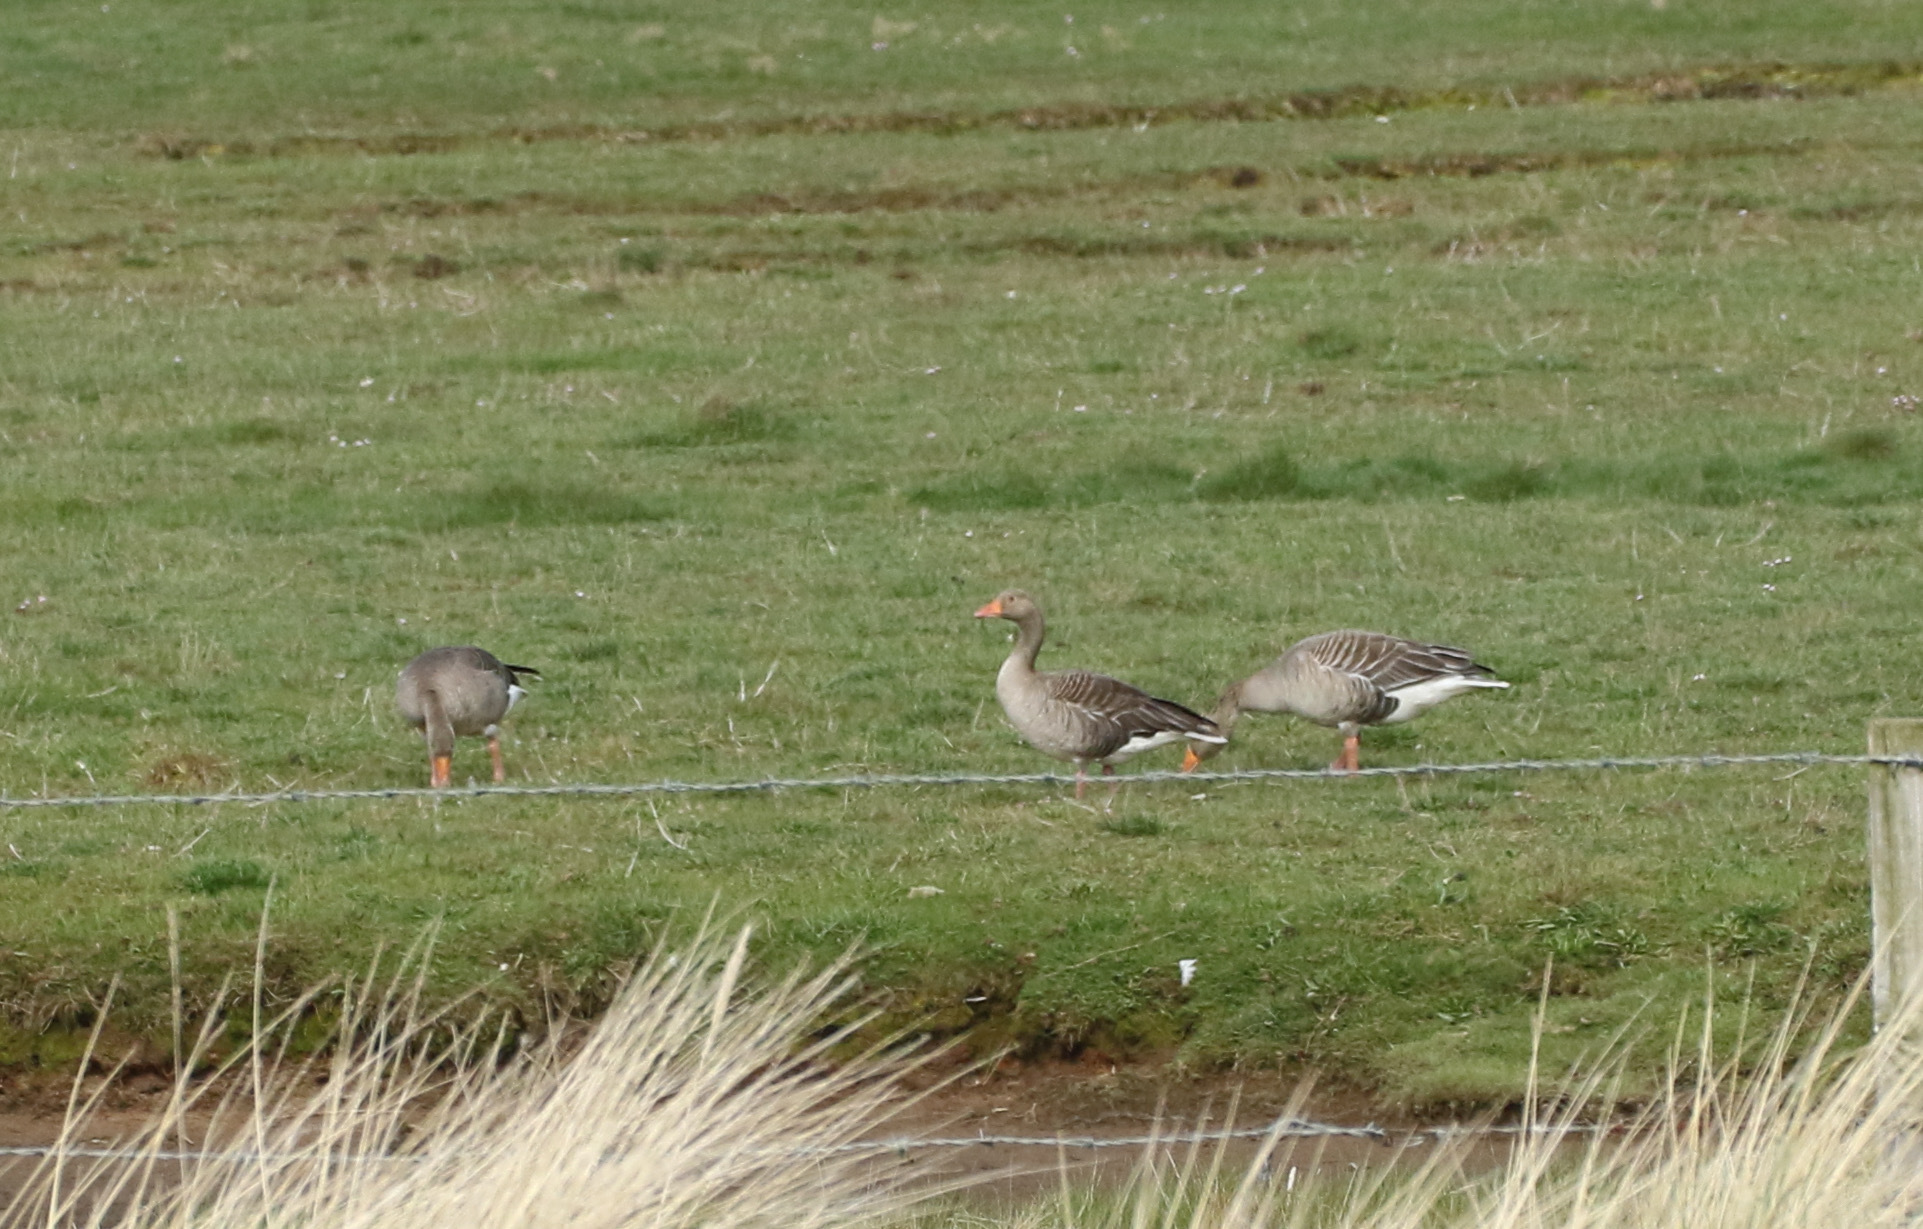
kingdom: Animalia
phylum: Chordata
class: Aves
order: Anseriformes
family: Anatidae
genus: Anser
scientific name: Anser anser
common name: Greylag goose
